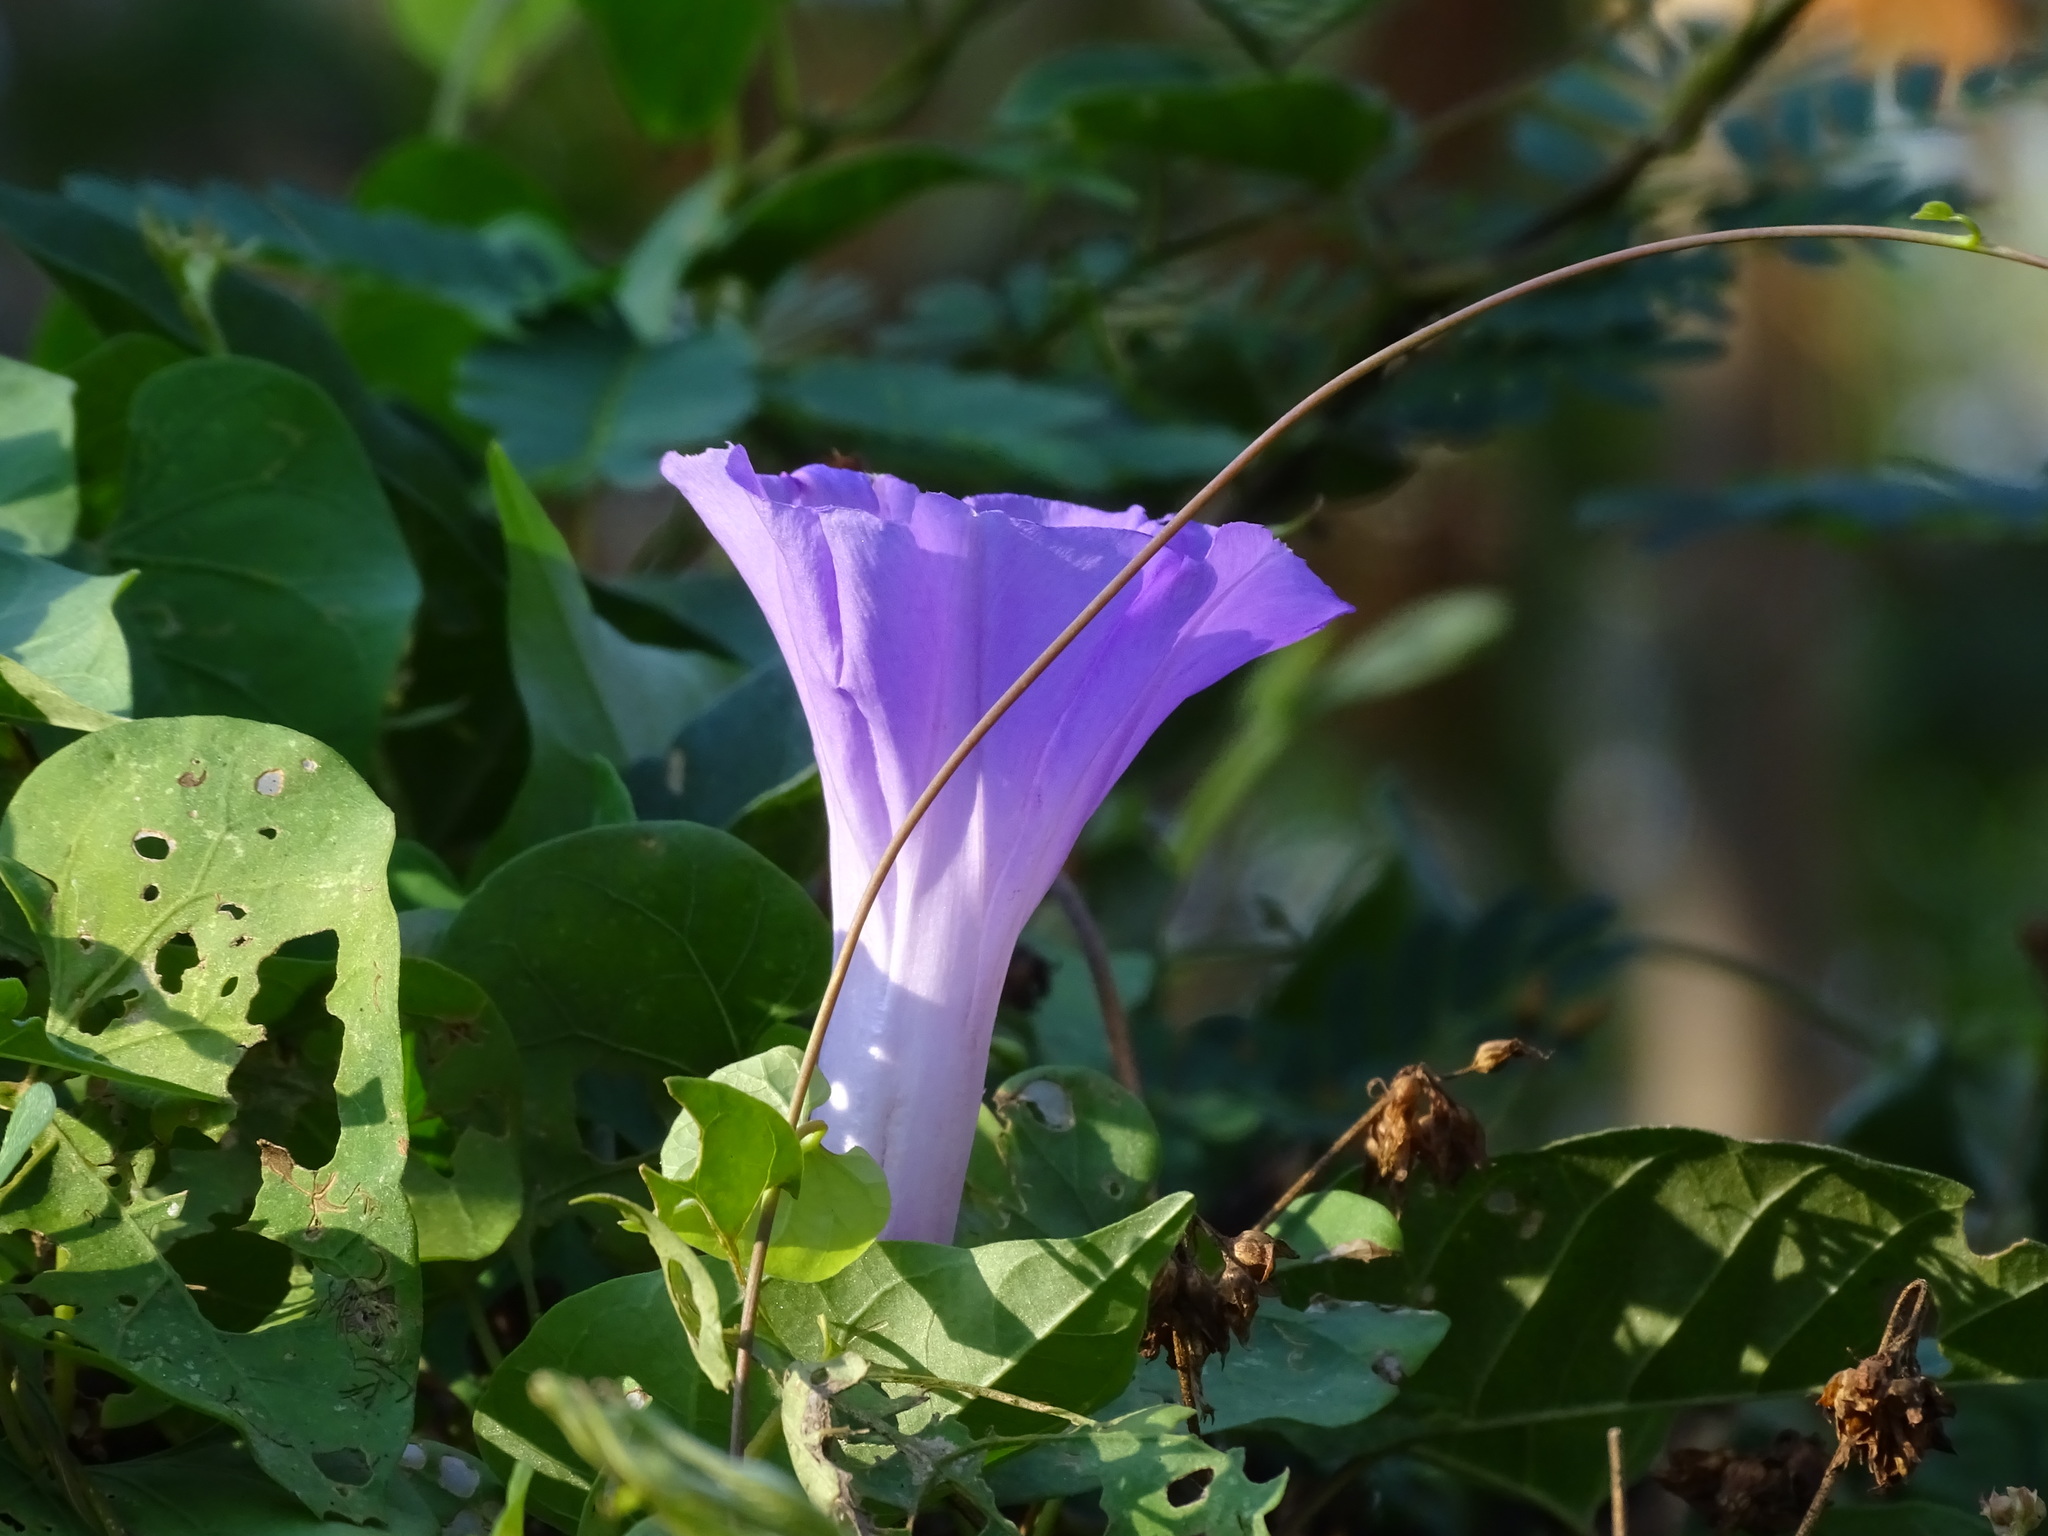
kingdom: Plantae
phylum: Tracheophyta
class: Magnoliopsida
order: Solanales
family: Convolvulaceae
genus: Ipomoea
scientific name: Ipomoea crinicalyx
